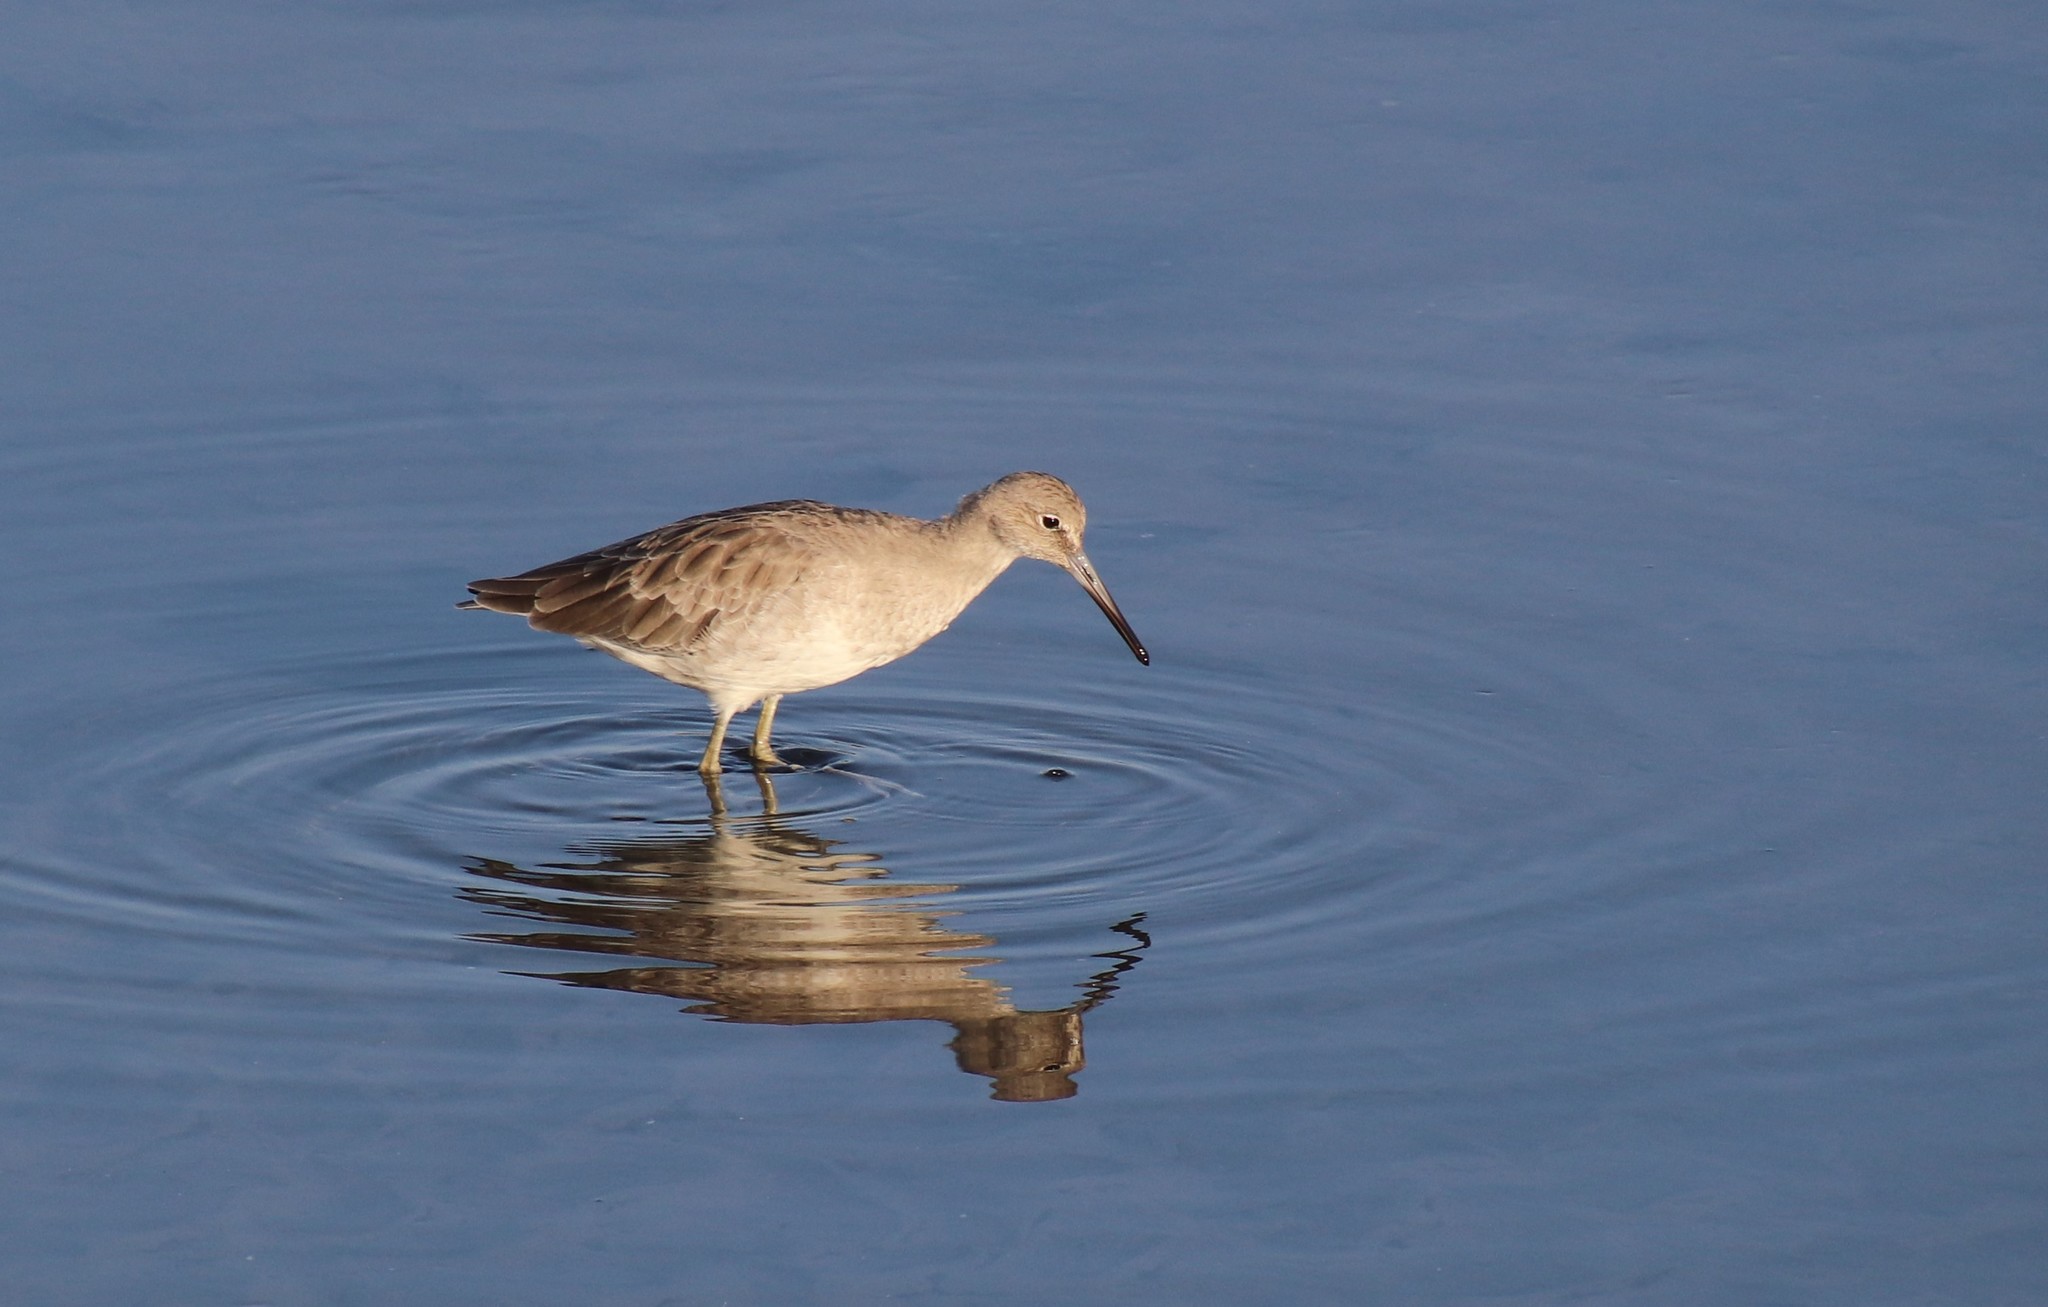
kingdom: Animalia
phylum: Chordata
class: Aves
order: Charadriiformes
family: Scolopacidae
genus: Tringa
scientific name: Tringa semipalmata
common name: Willet
